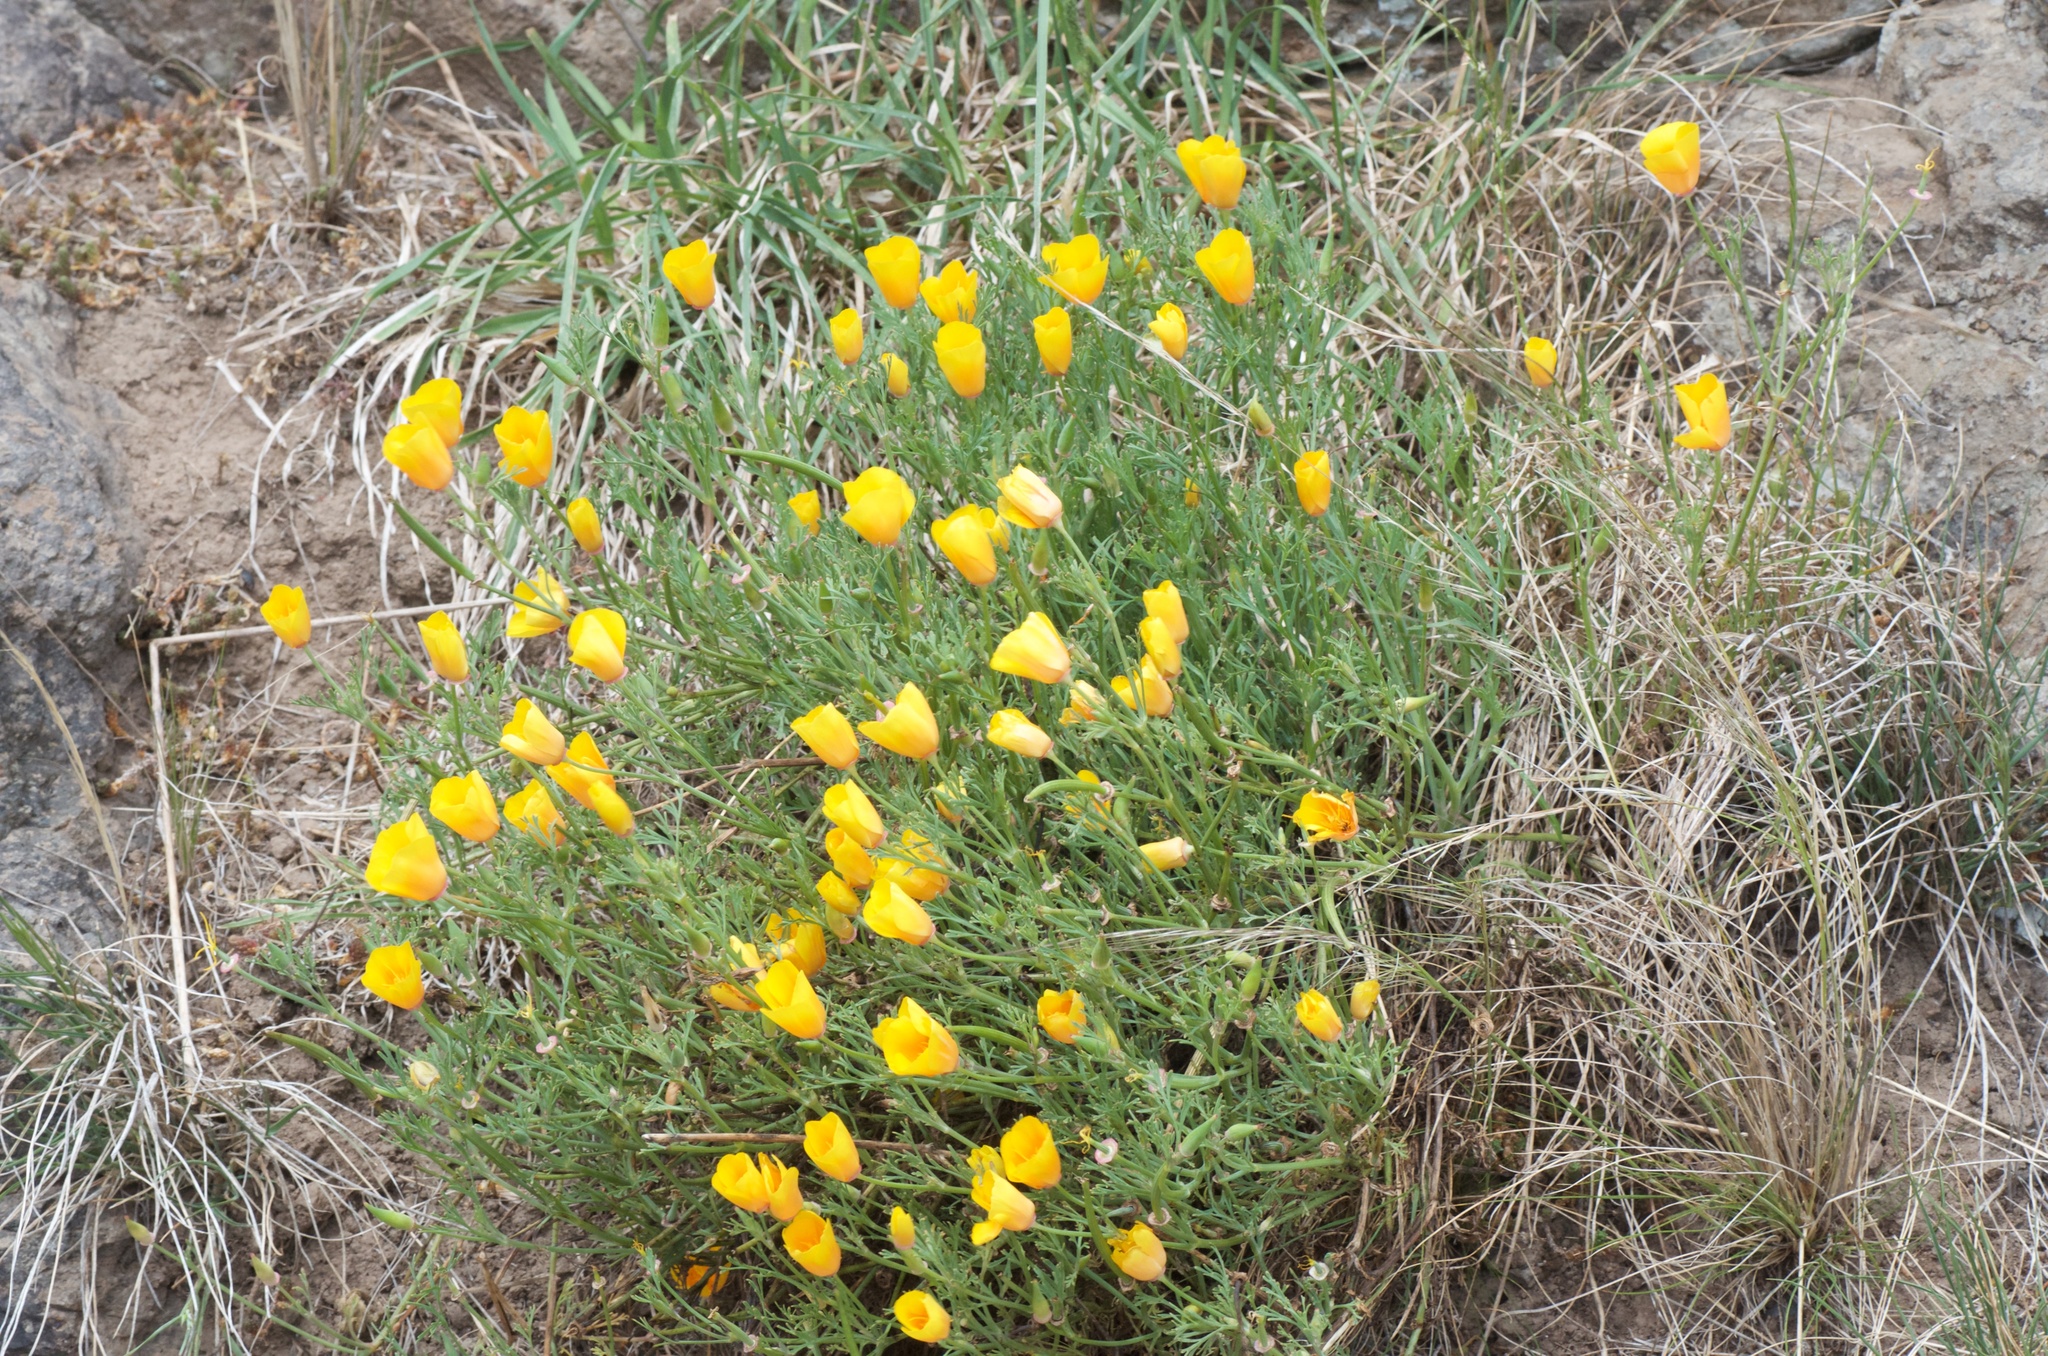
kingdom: Plantae
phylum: Tracheophyta
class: Magnoliopsida
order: Ranunculales
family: Papaveraceae
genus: Eschscholzia
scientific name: Eschscholzia californica
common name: California poppy
